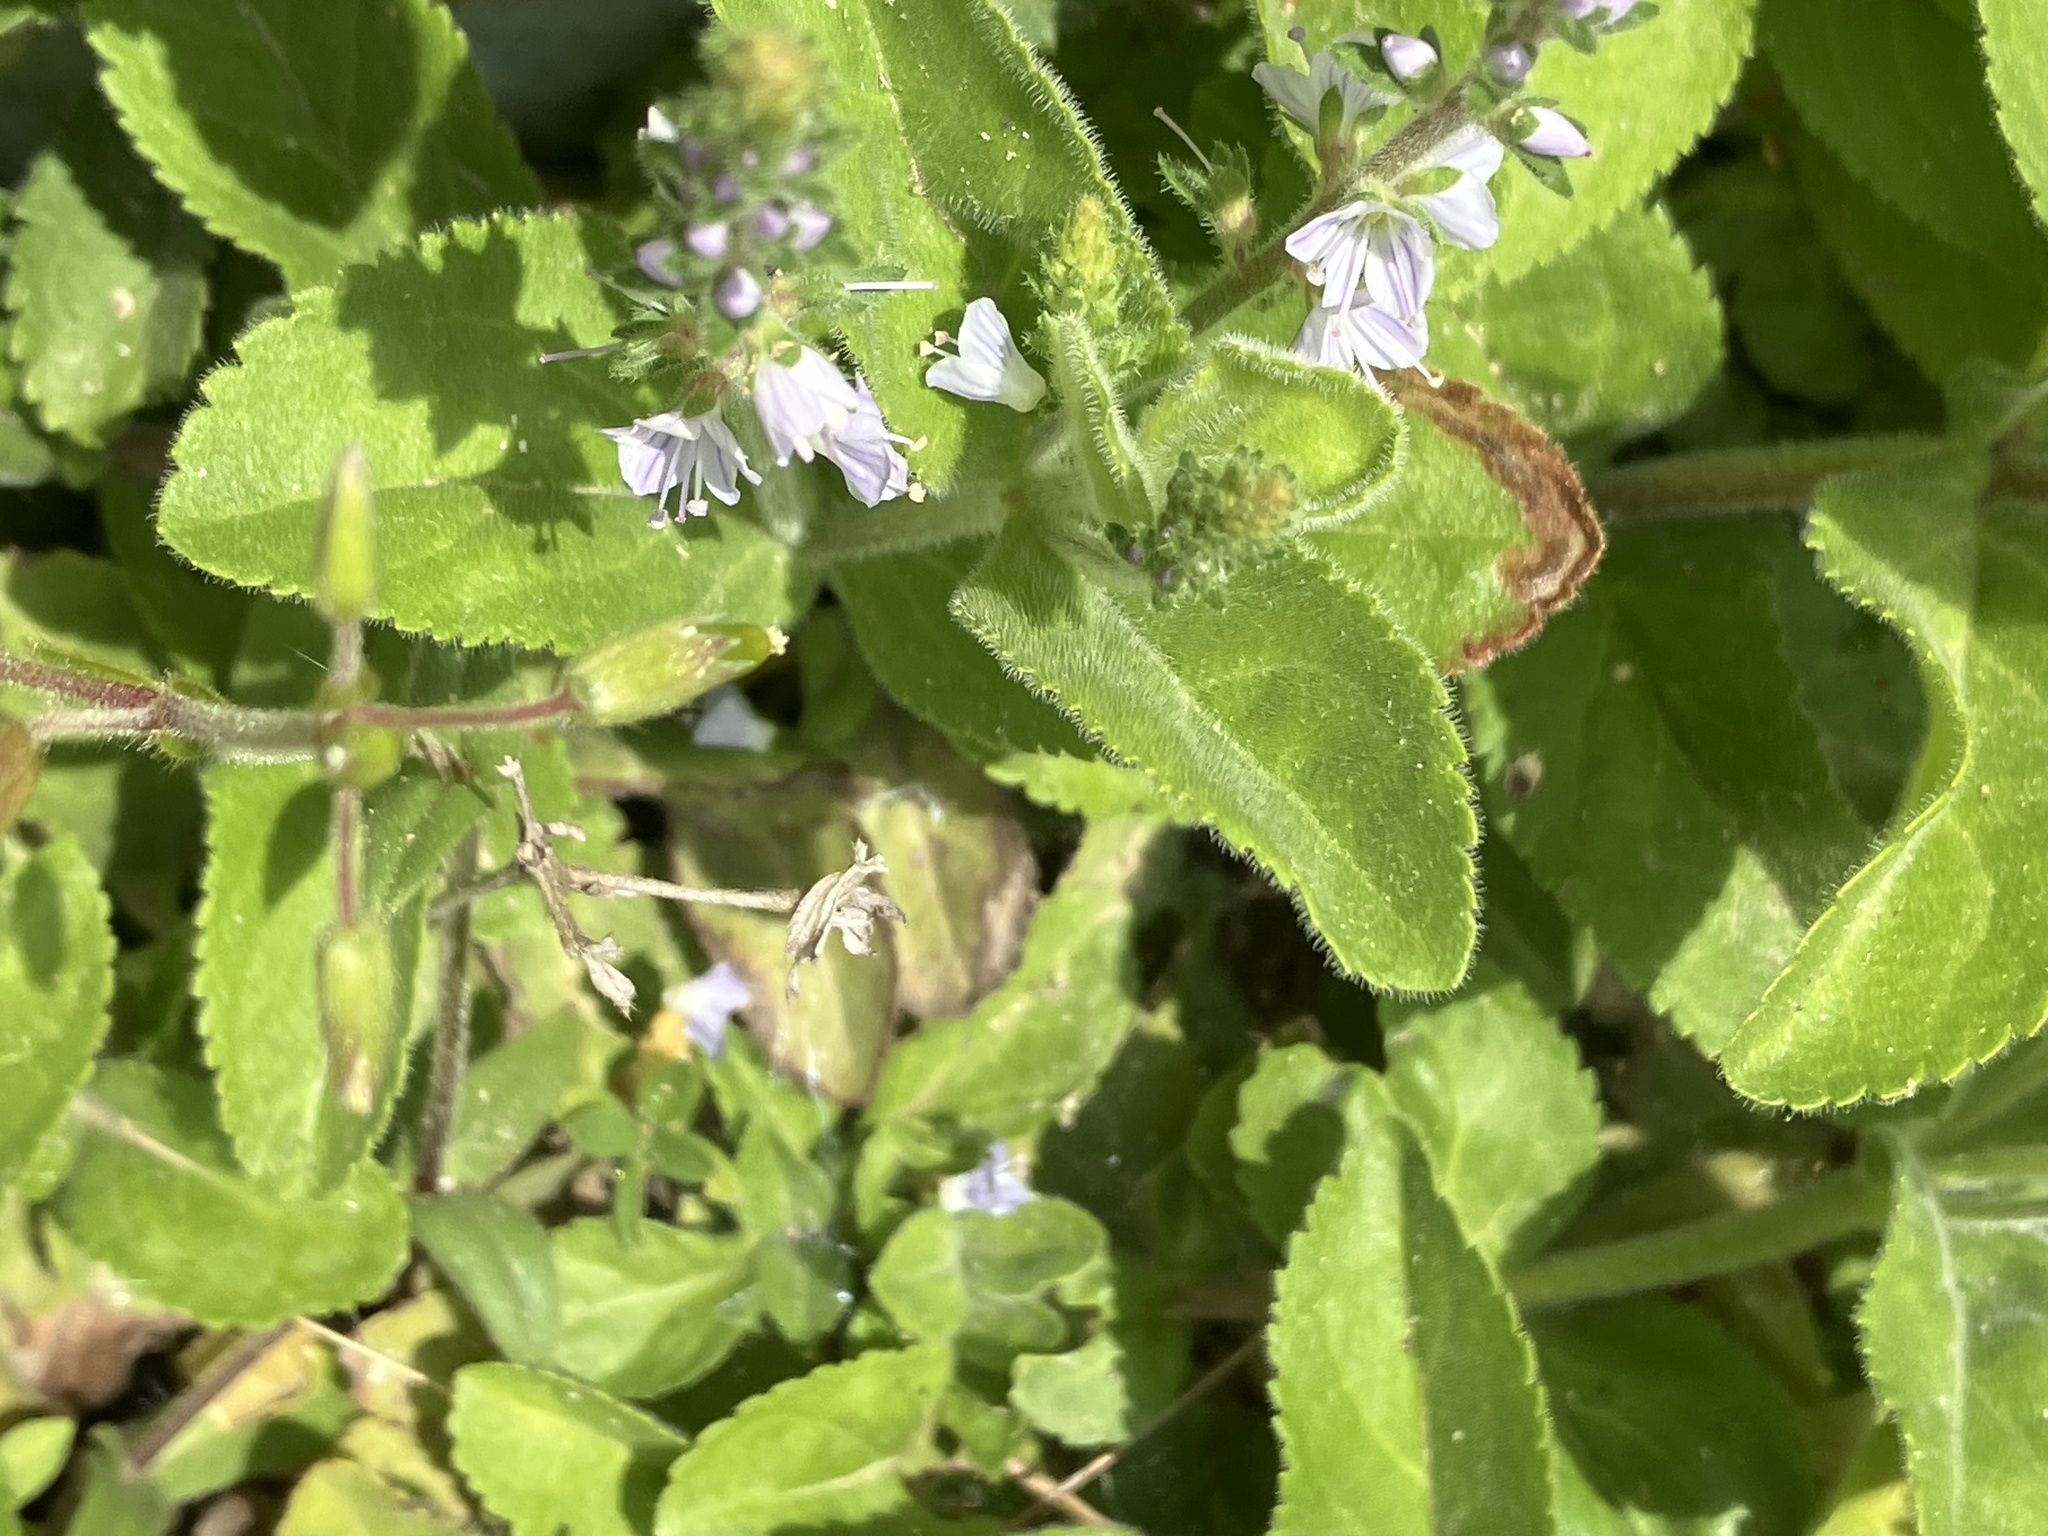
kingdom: Plantae
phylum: Tracheophyta
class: Magnoliopsida
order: Lamiales
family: Plantaginaceae
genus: Veronica
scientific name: Veronica officinalis
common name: Common speedwell
